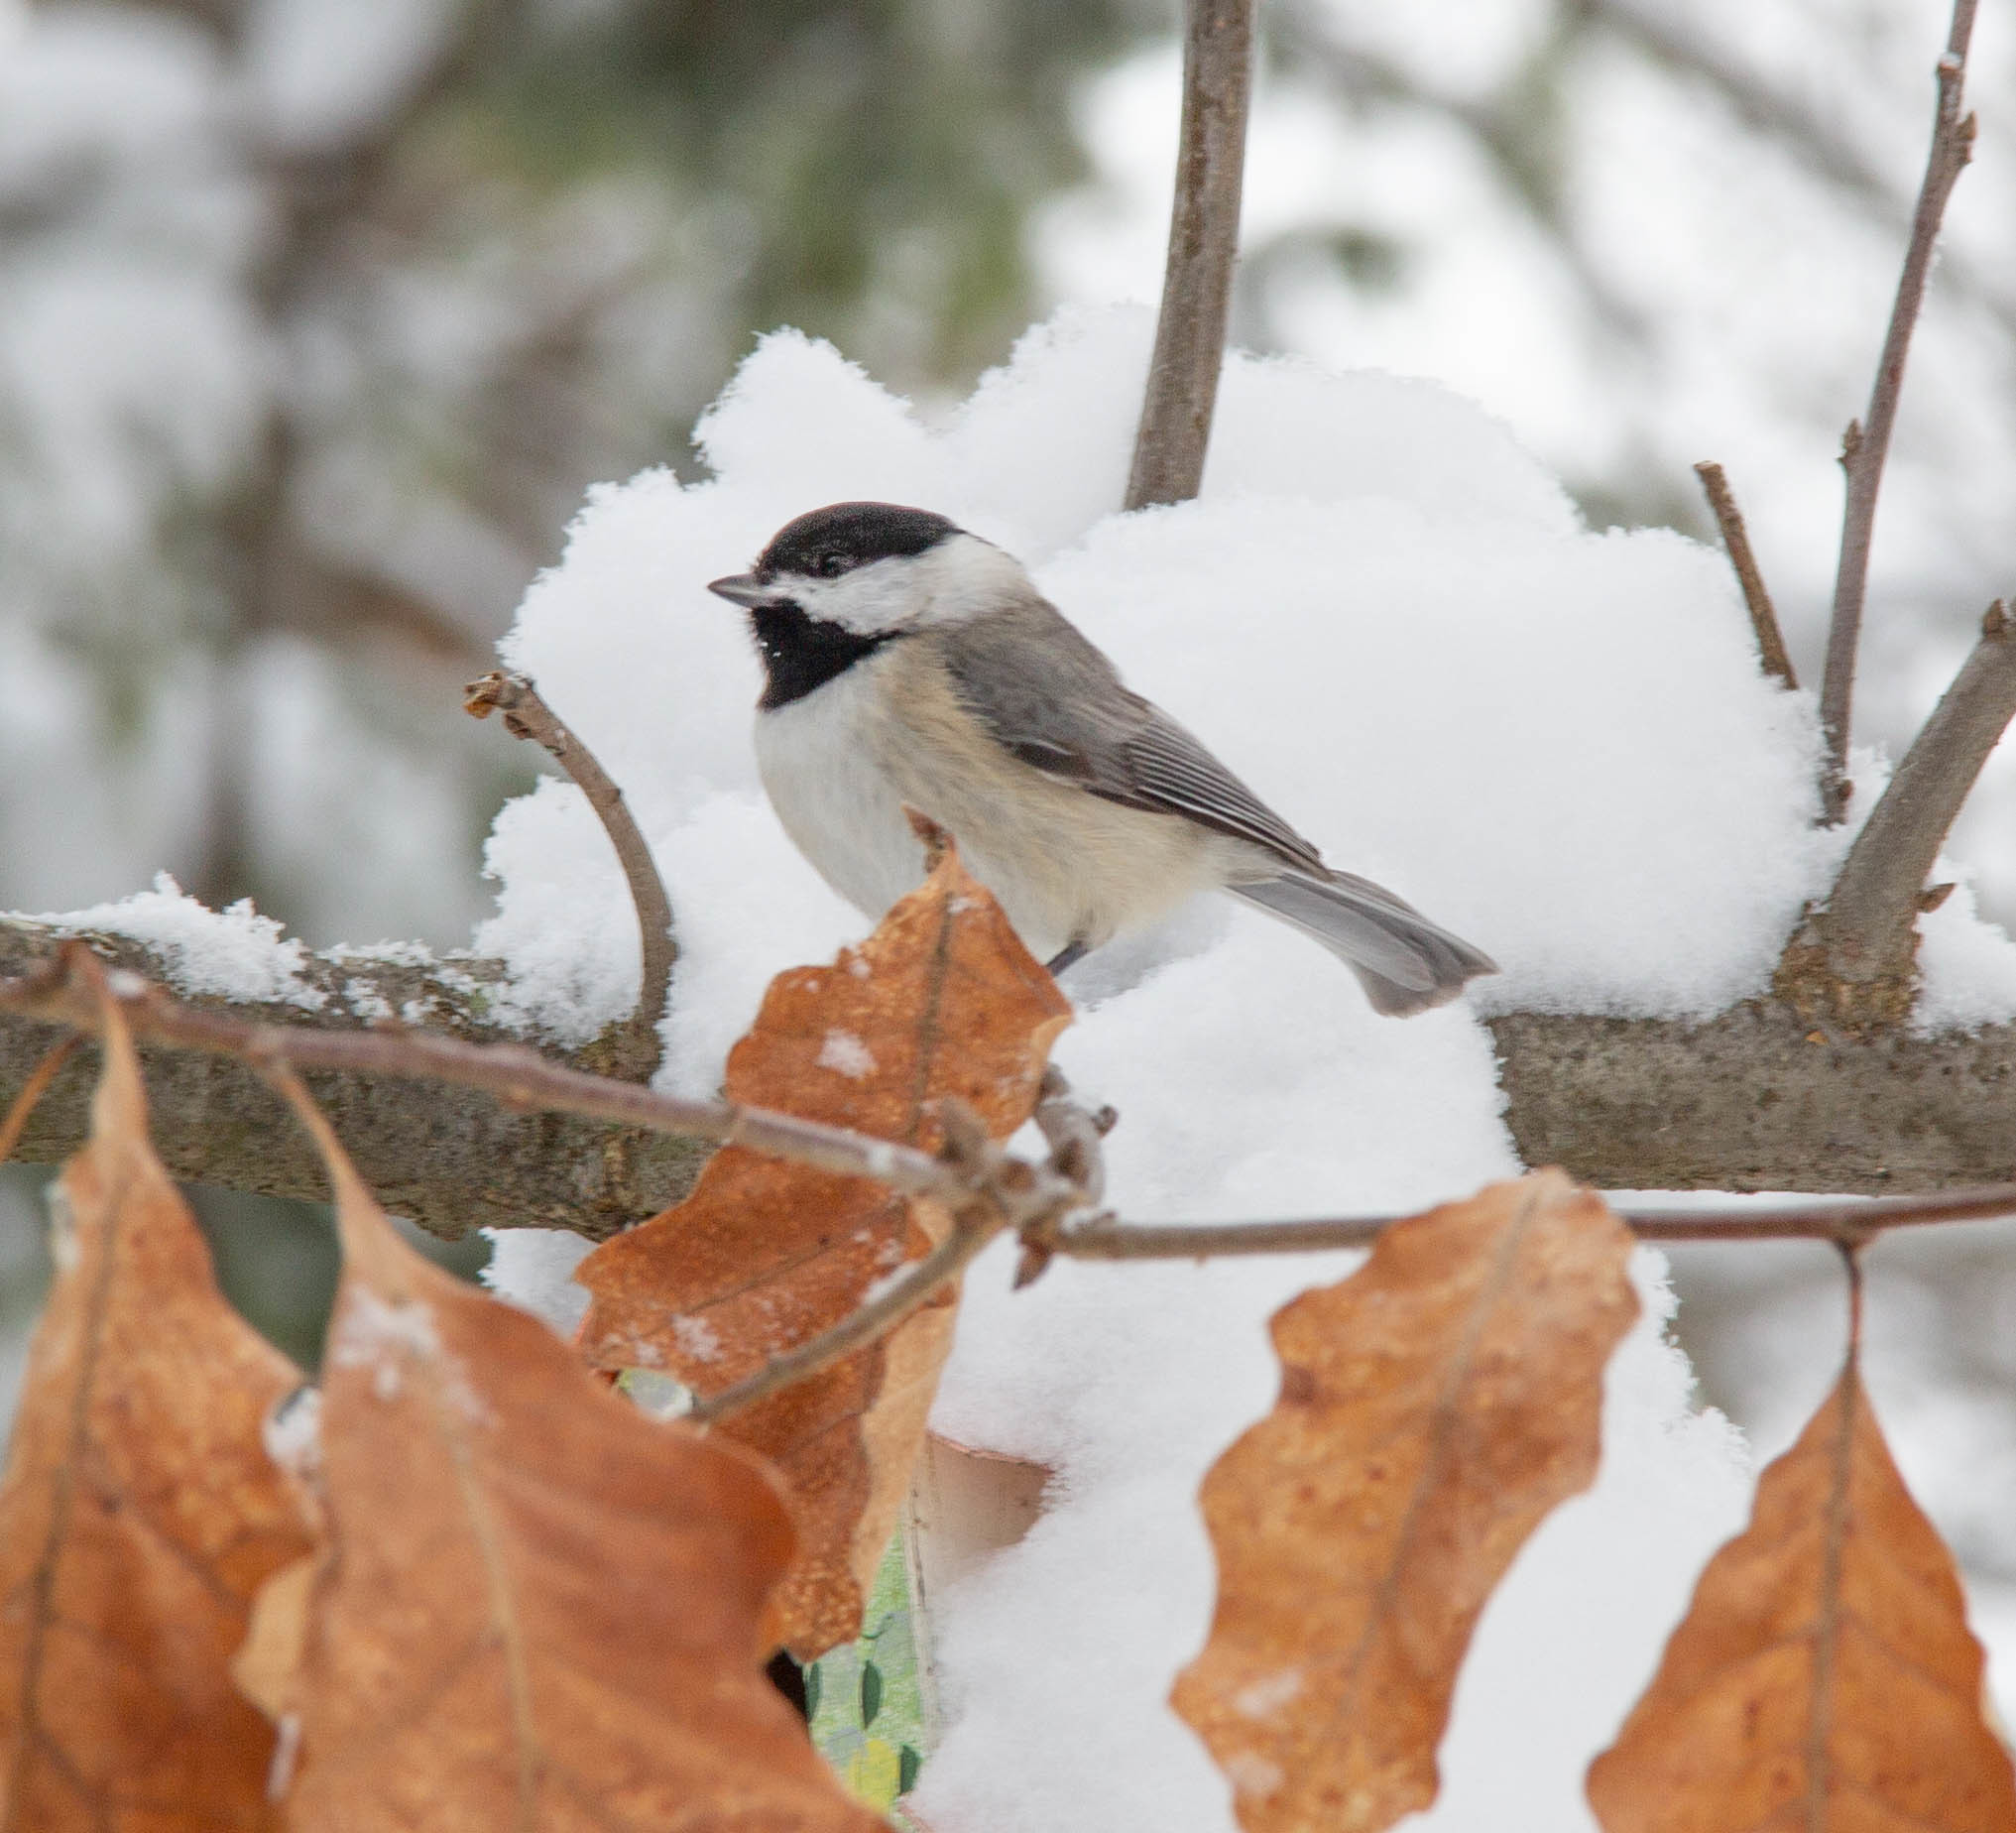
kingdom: Animalia
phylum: Chordata
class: Aves
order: Passeriformes
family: Paridae
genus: Poecile
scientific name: Poecile carolinensis
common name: Carolina chickadee
